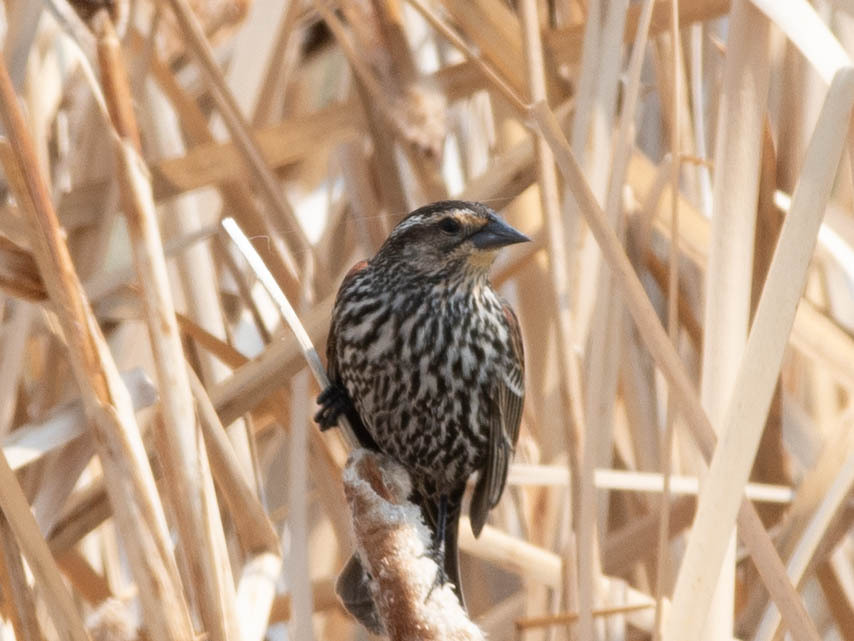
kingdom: Animalia
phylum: Chordata
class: Aves
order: Passeriformes
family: Icteridae
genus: Agelaius
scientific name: Agelaius phoeniceus
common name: Red-winged blackbird
